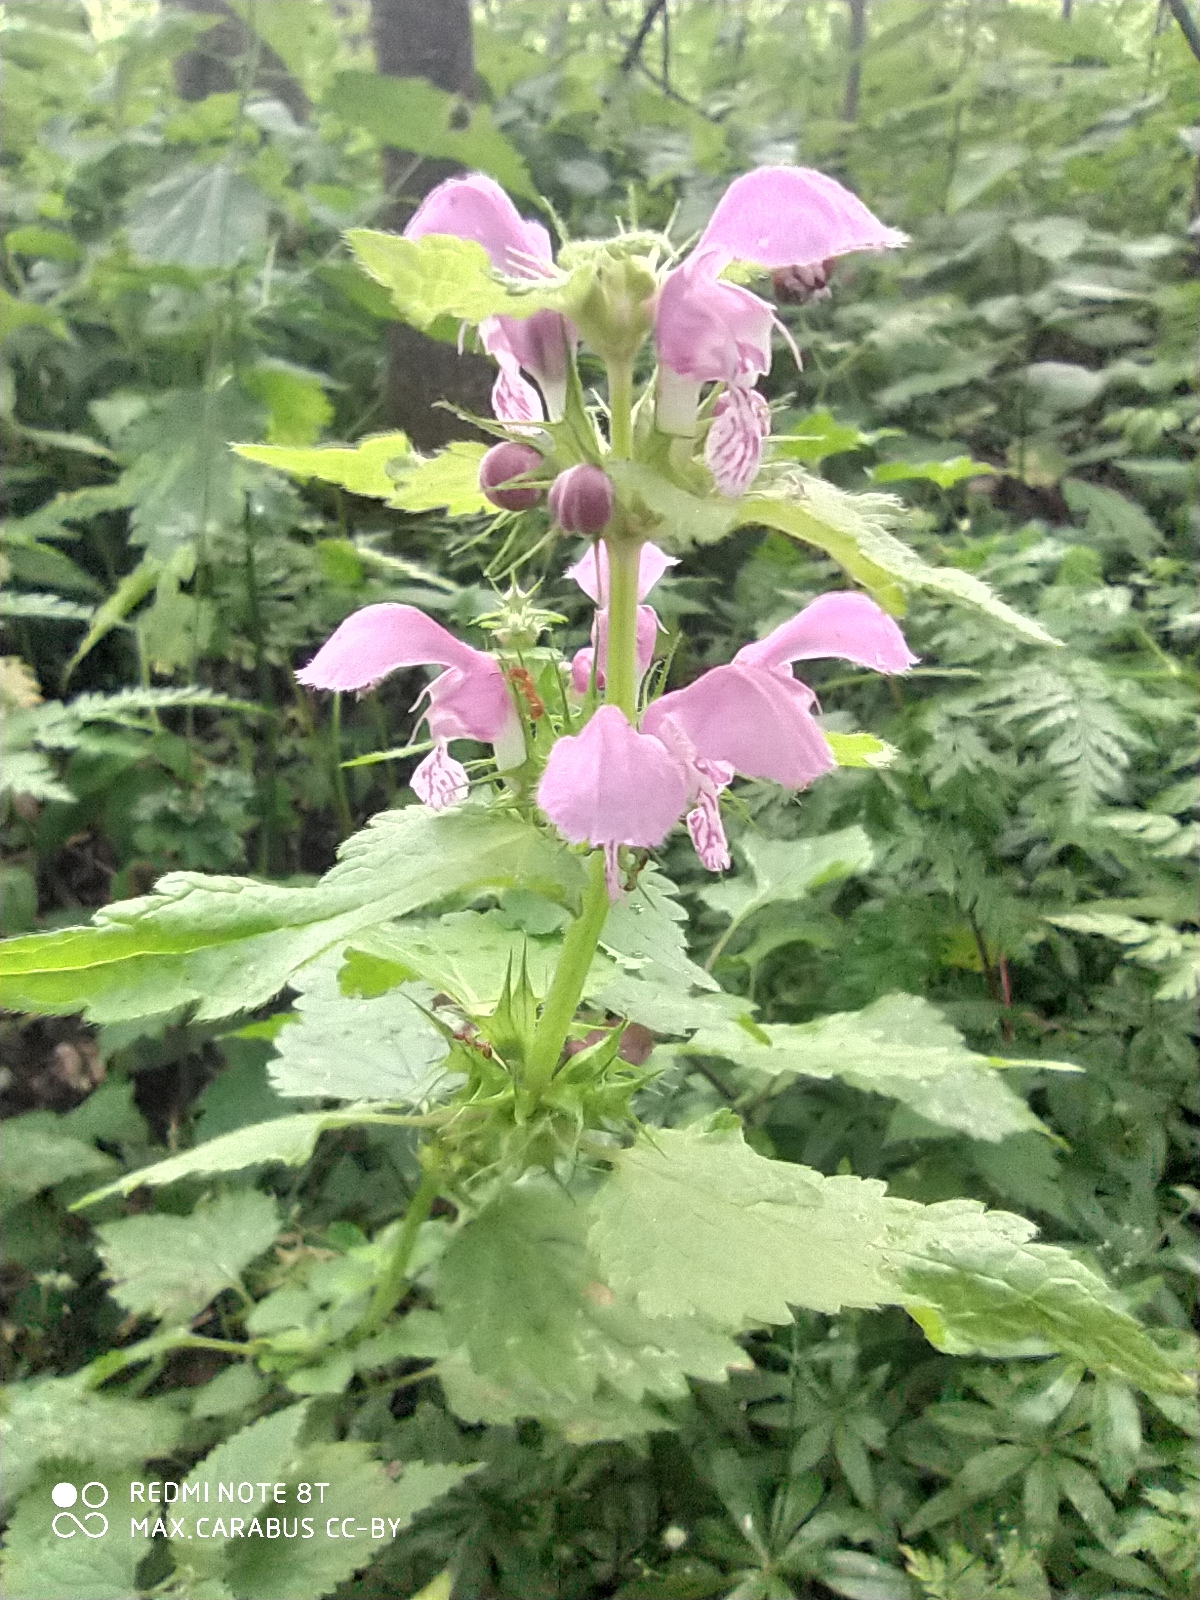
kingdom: Plantae
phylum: Tracheophyta
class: Magnoliopsida
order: Lamiales
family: Lamiaceae
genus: Lamium
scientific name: Lamium maculatum
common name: Spotted dead-nettle
